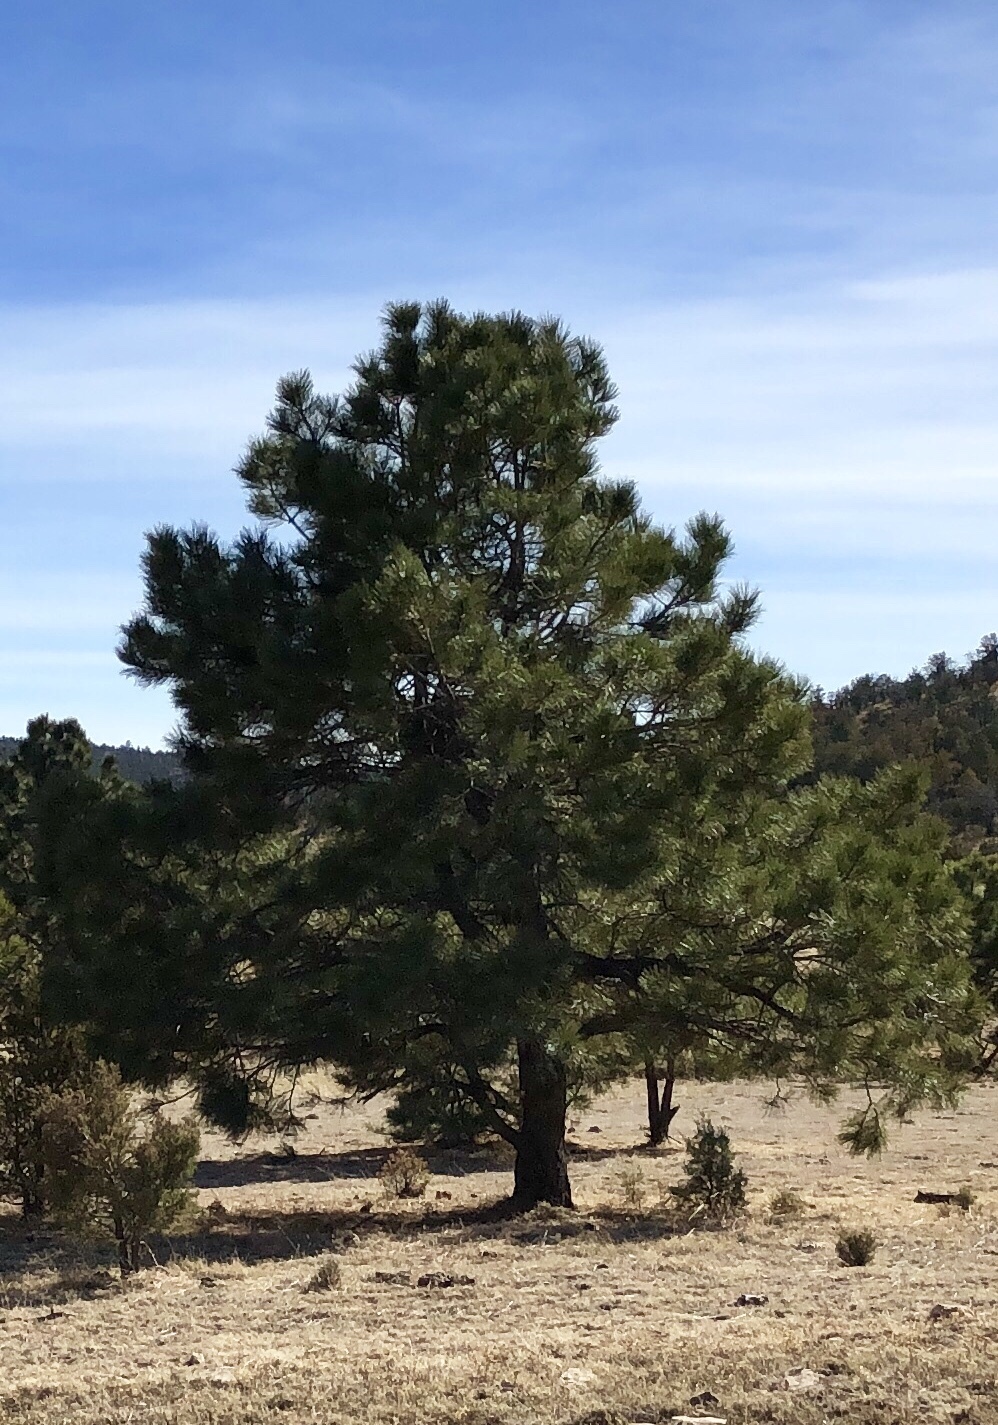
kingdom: Plantae
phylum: Tracheophyta
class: Pinopsida
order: Pinales
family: Pinaceae
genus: Pinus
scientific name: Pinus ponderosa
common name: Western yellow-pine
